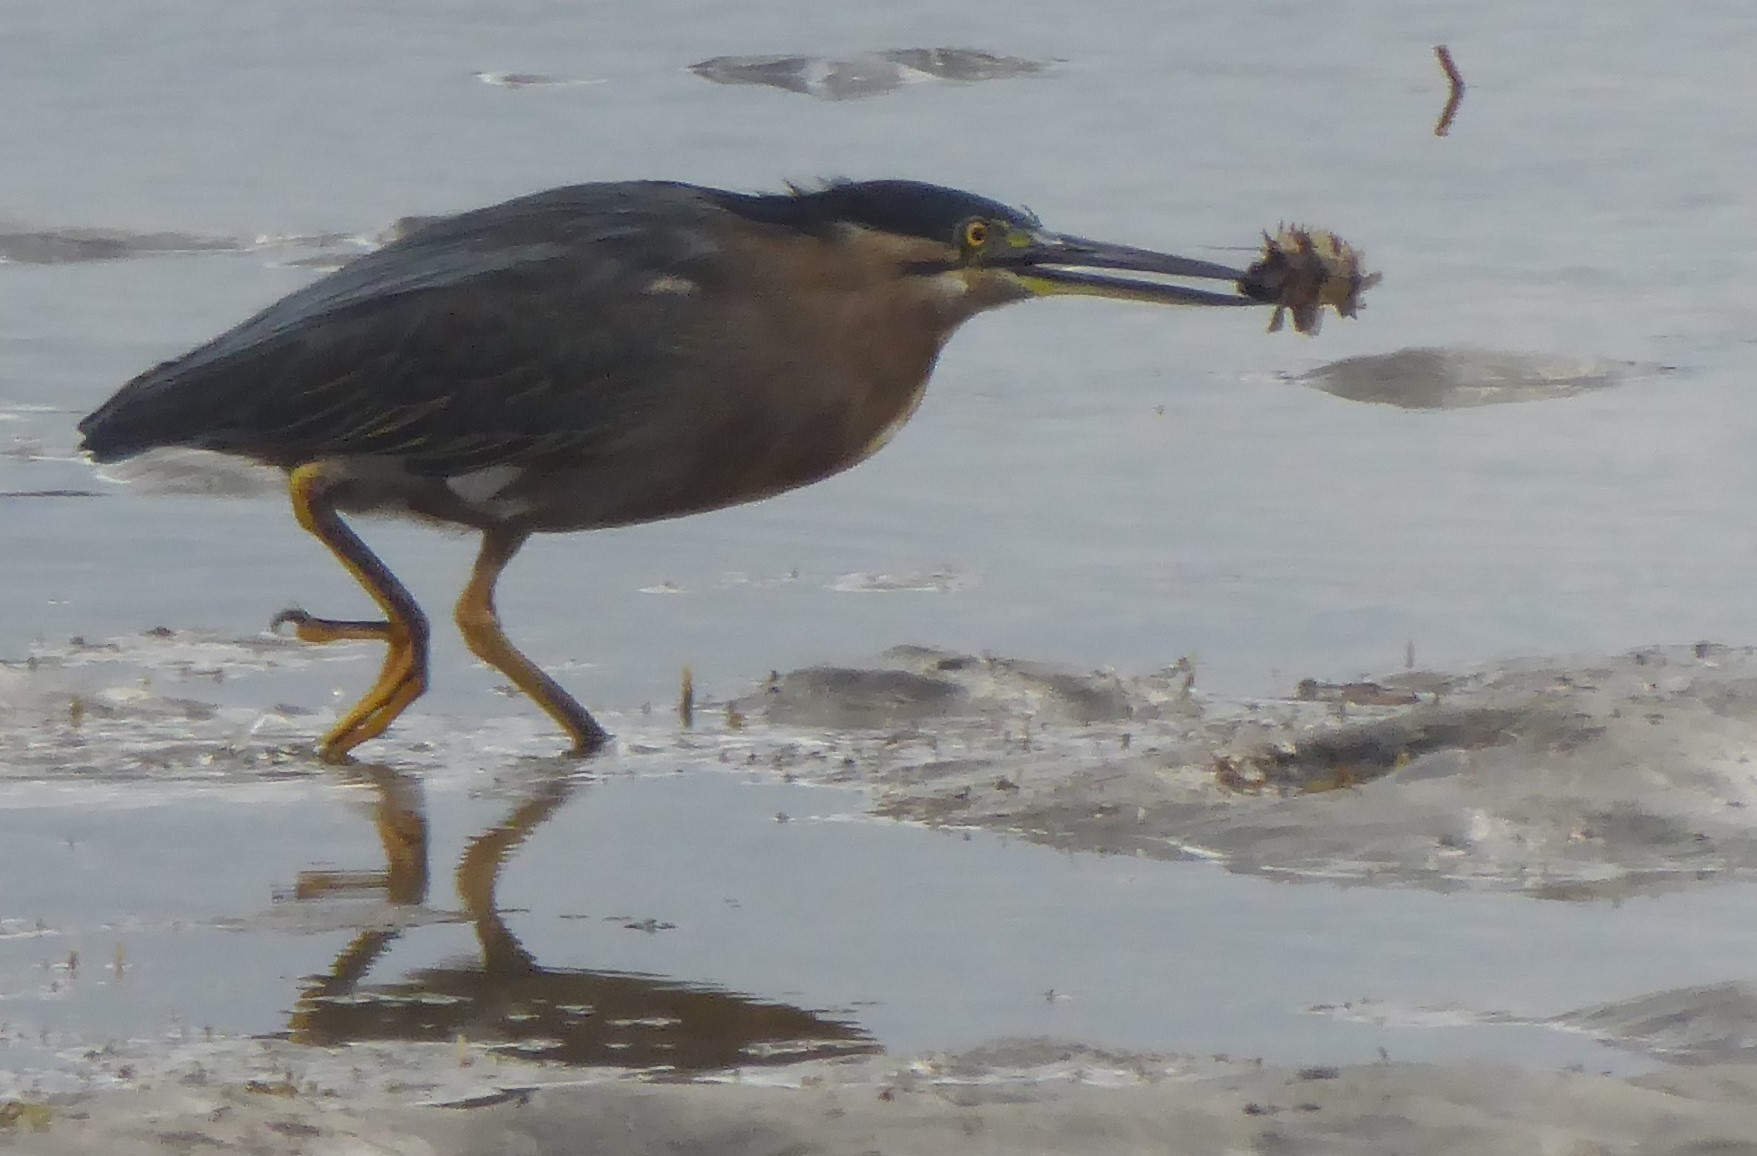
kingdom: Animalia
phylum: Chordata
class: Aves
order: Pelecaniformes
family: Ardeidae
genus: Butorides
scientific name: Butorides striata
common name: Striated heron
